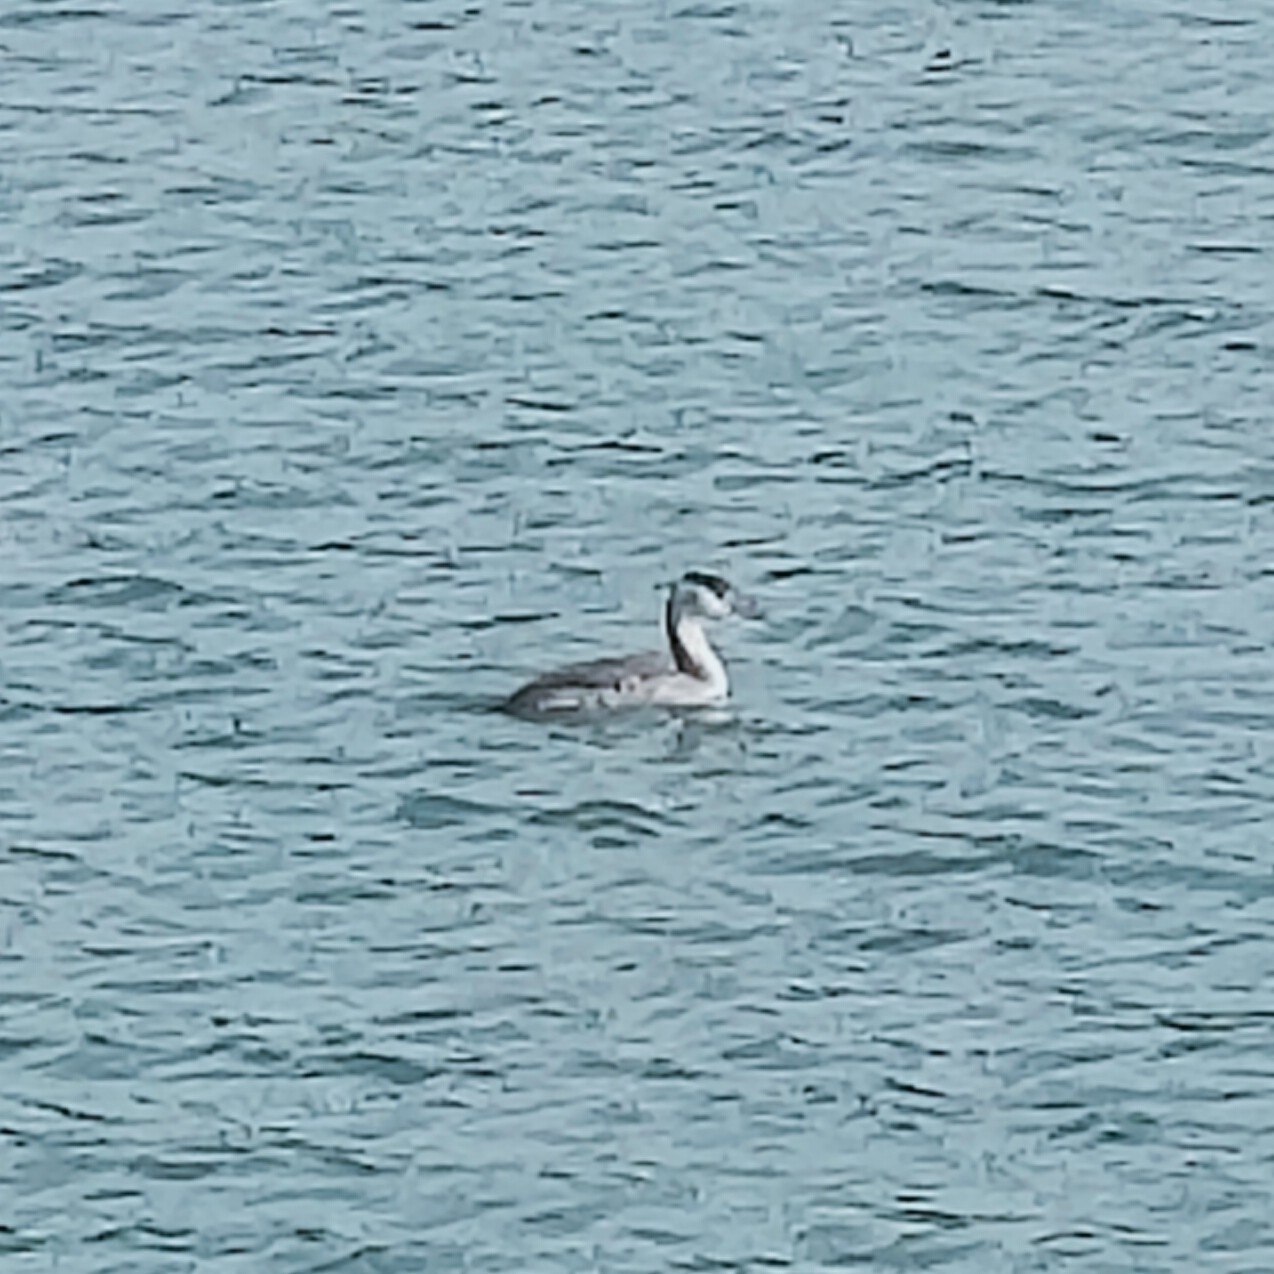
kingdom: Animalia
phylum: Chordata
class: Aves
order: Podicipediformes
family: Podicipedidae
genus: Podiceps
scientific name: Podiceps cristatus
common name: Great crested grebe
